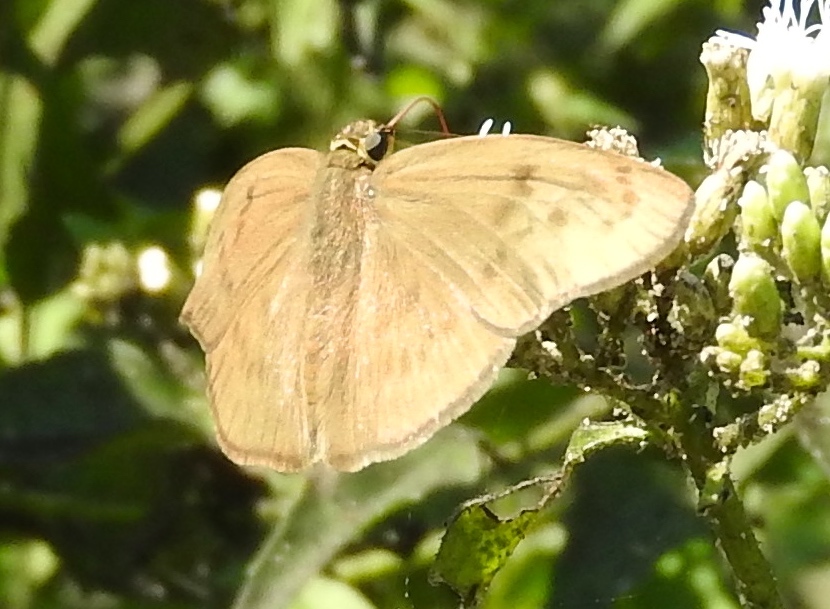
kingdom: Animalia
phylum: Arthropoda
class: Insecta
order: Lepidoptera
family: Hesperiidae
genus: Grais
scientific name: Grais stigmaticus
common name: Hermit skipper
